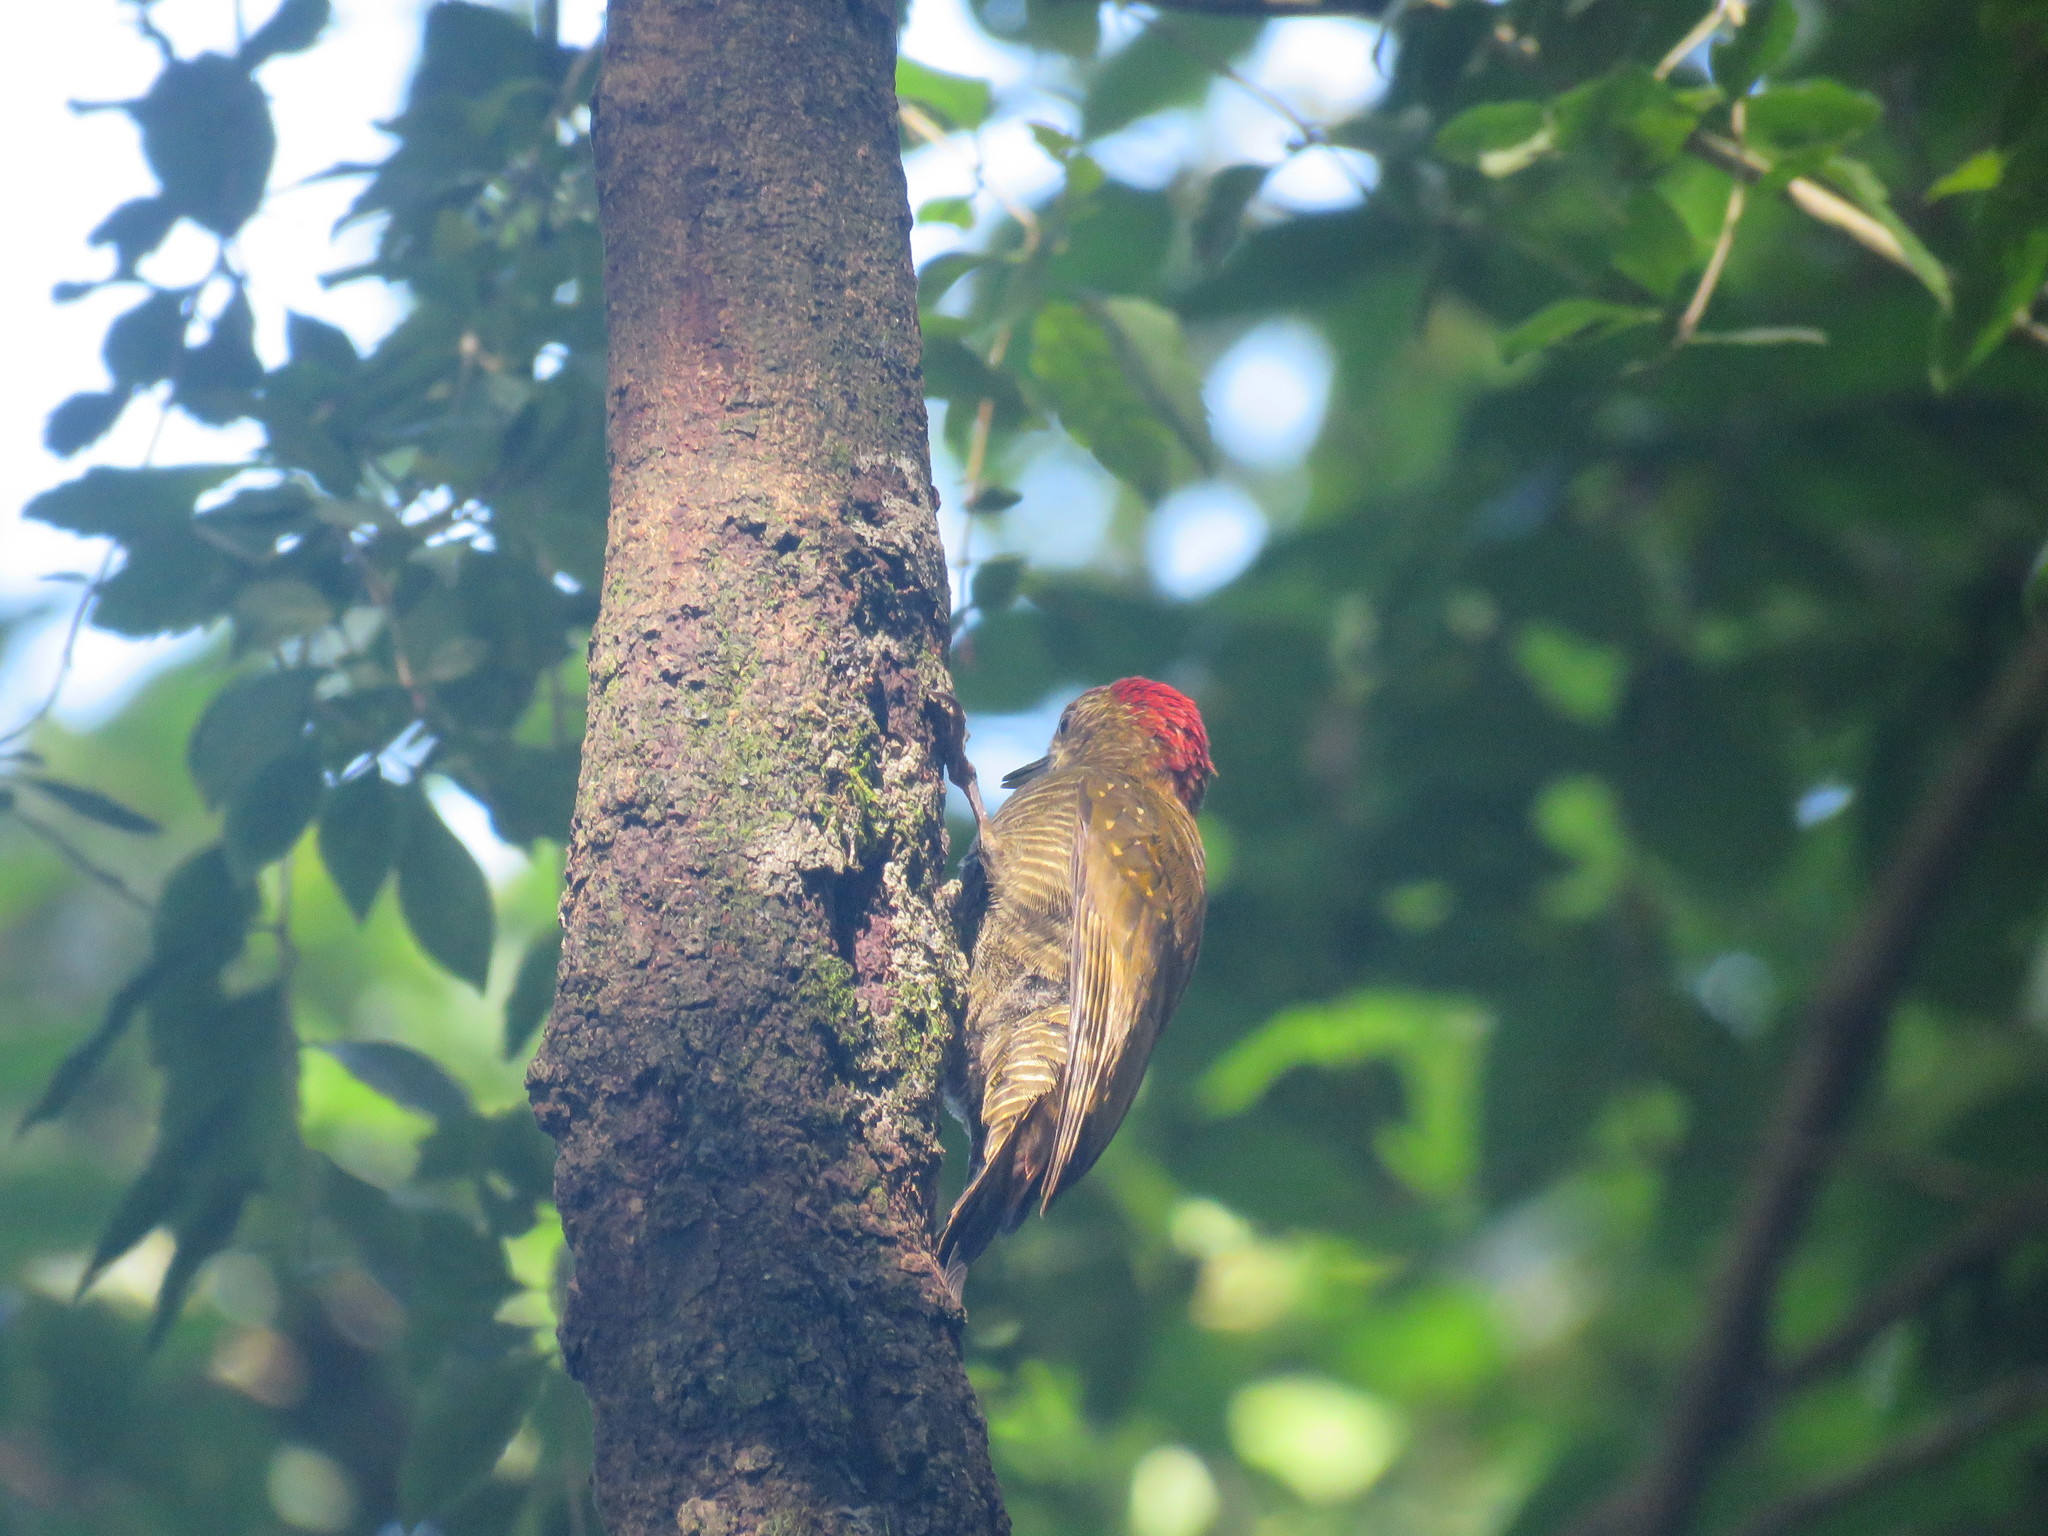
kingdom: Animalia
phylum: Chordata
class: Aves
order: Piciformes
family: Picidae
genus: Veniliornis
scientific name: Veniliornis frontalis
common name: Dot-fronted woodpecker
